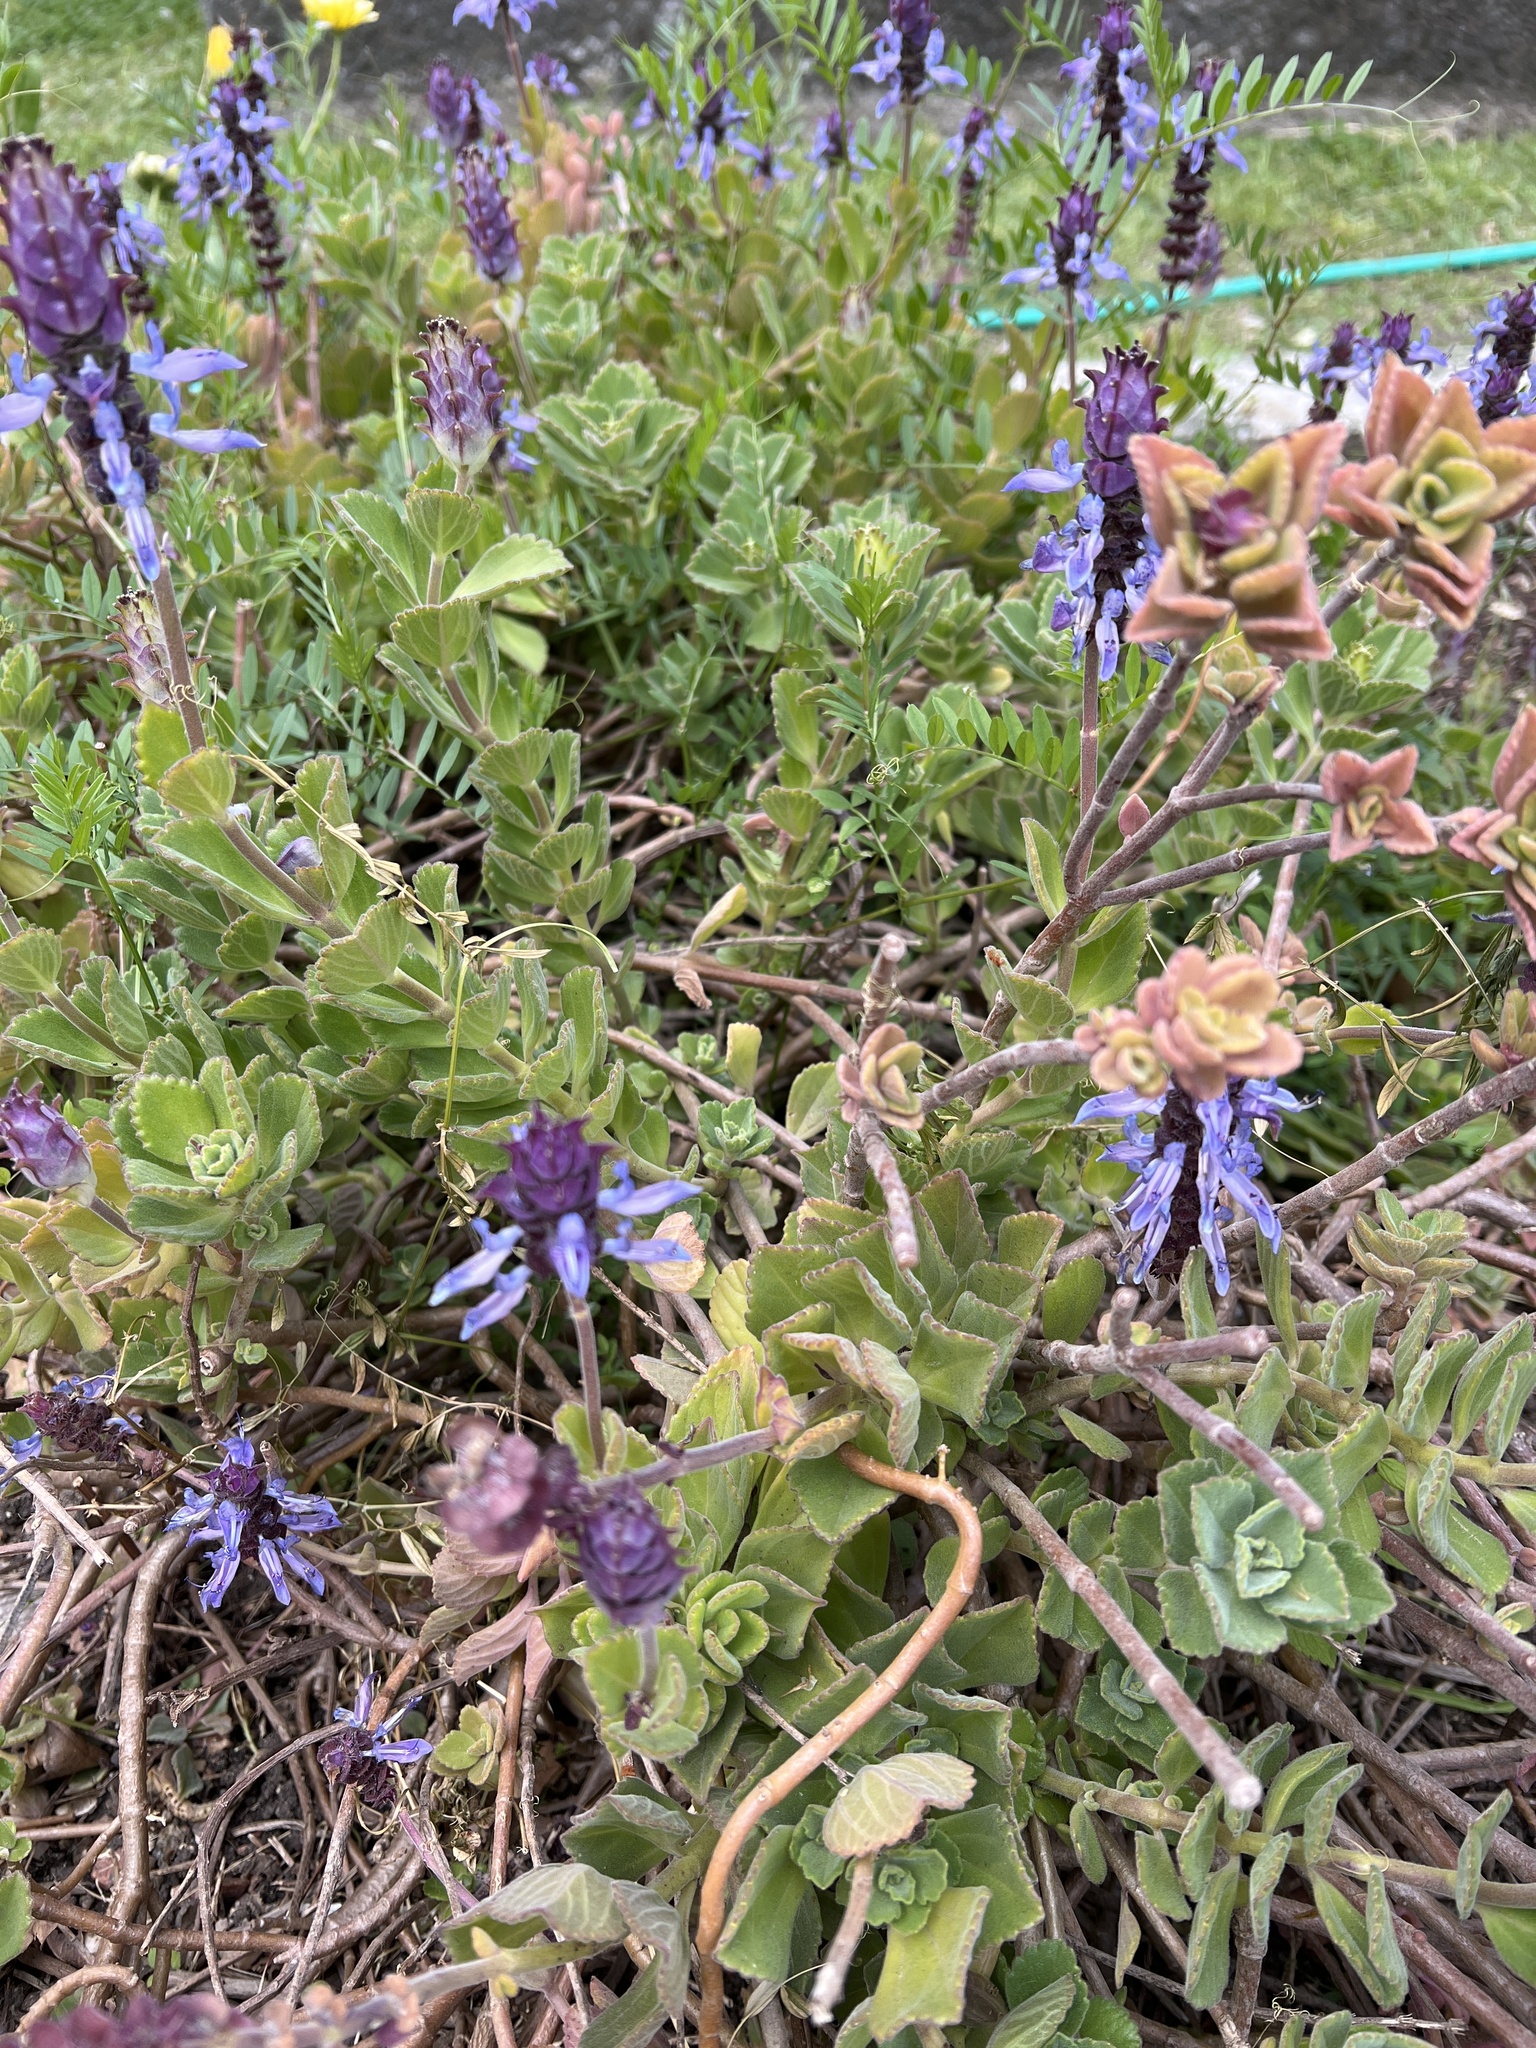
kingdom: Plantae
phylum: Tracheophyta
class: Magnoliopsida
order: Lamiales
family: Lamiaceae
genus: Coleus
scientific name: Coleus neochilus
